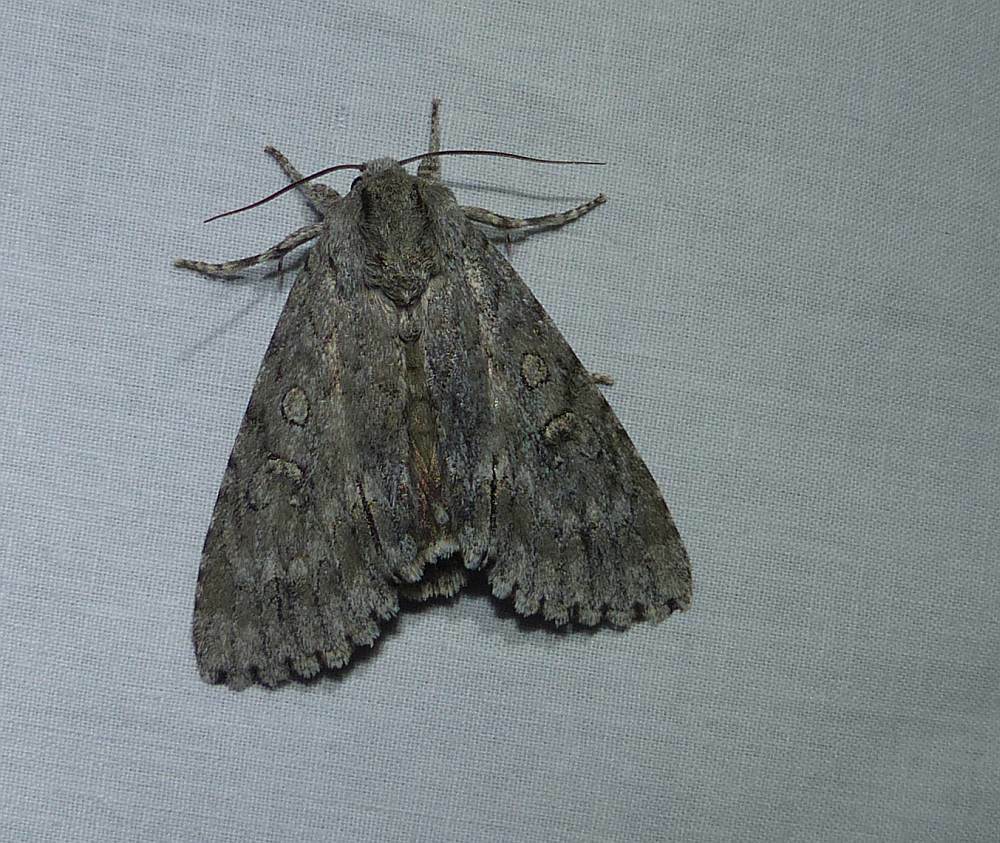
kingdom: Animalia
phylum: Arthropoda
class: Insecta
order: Lepidoptera
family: Noctuidae
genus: Acronicta
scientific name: Acronicta americana
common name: American dagger
